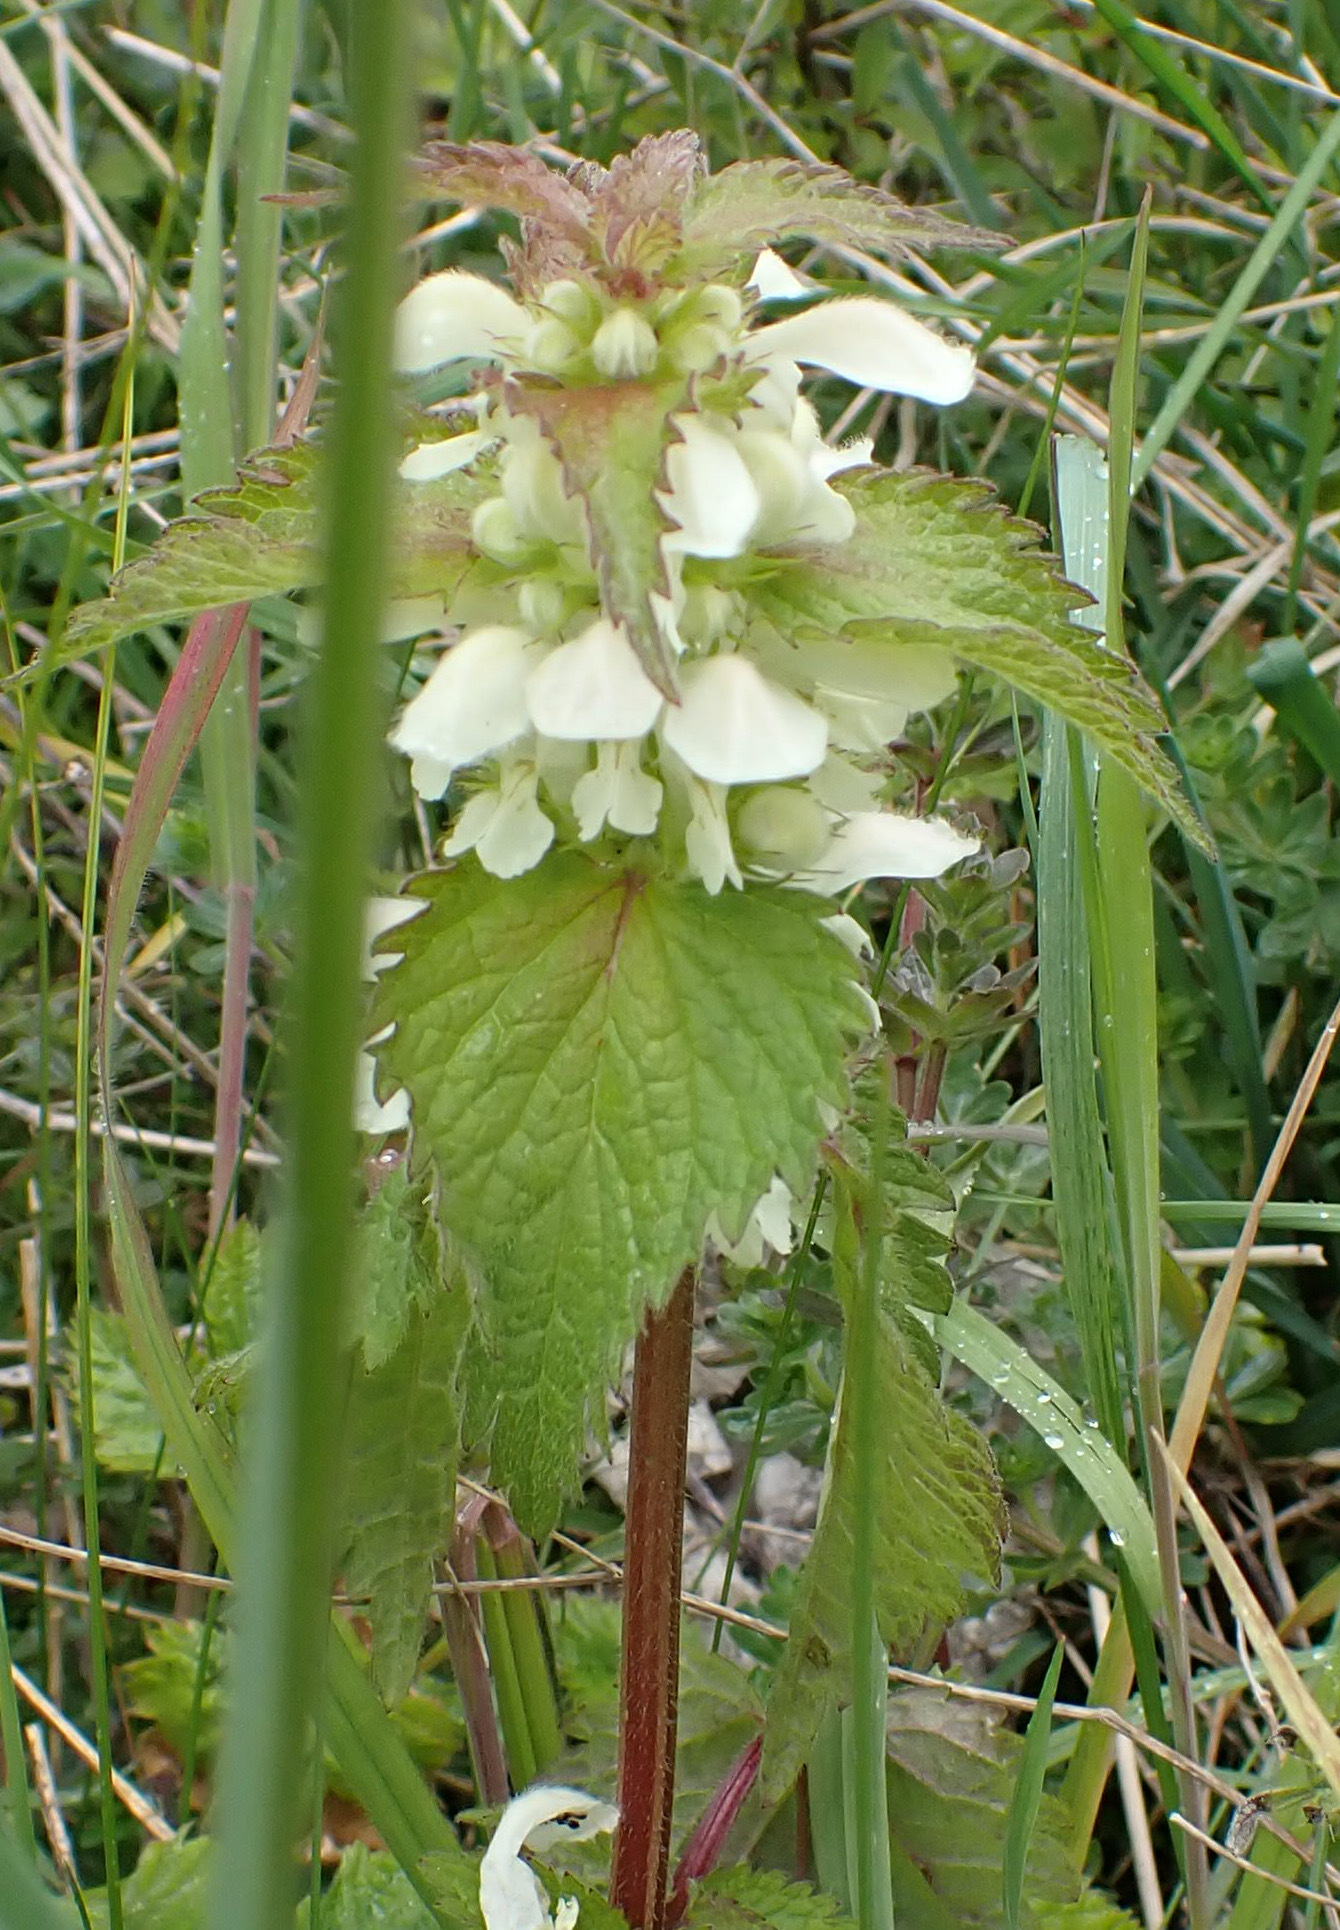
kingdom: Plantae
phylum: Tracheophyta
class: Magnoliopsida
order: Lamiales
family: Lamiaceae
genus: Lamium
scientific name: Lamium album
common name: White dead-nettle
